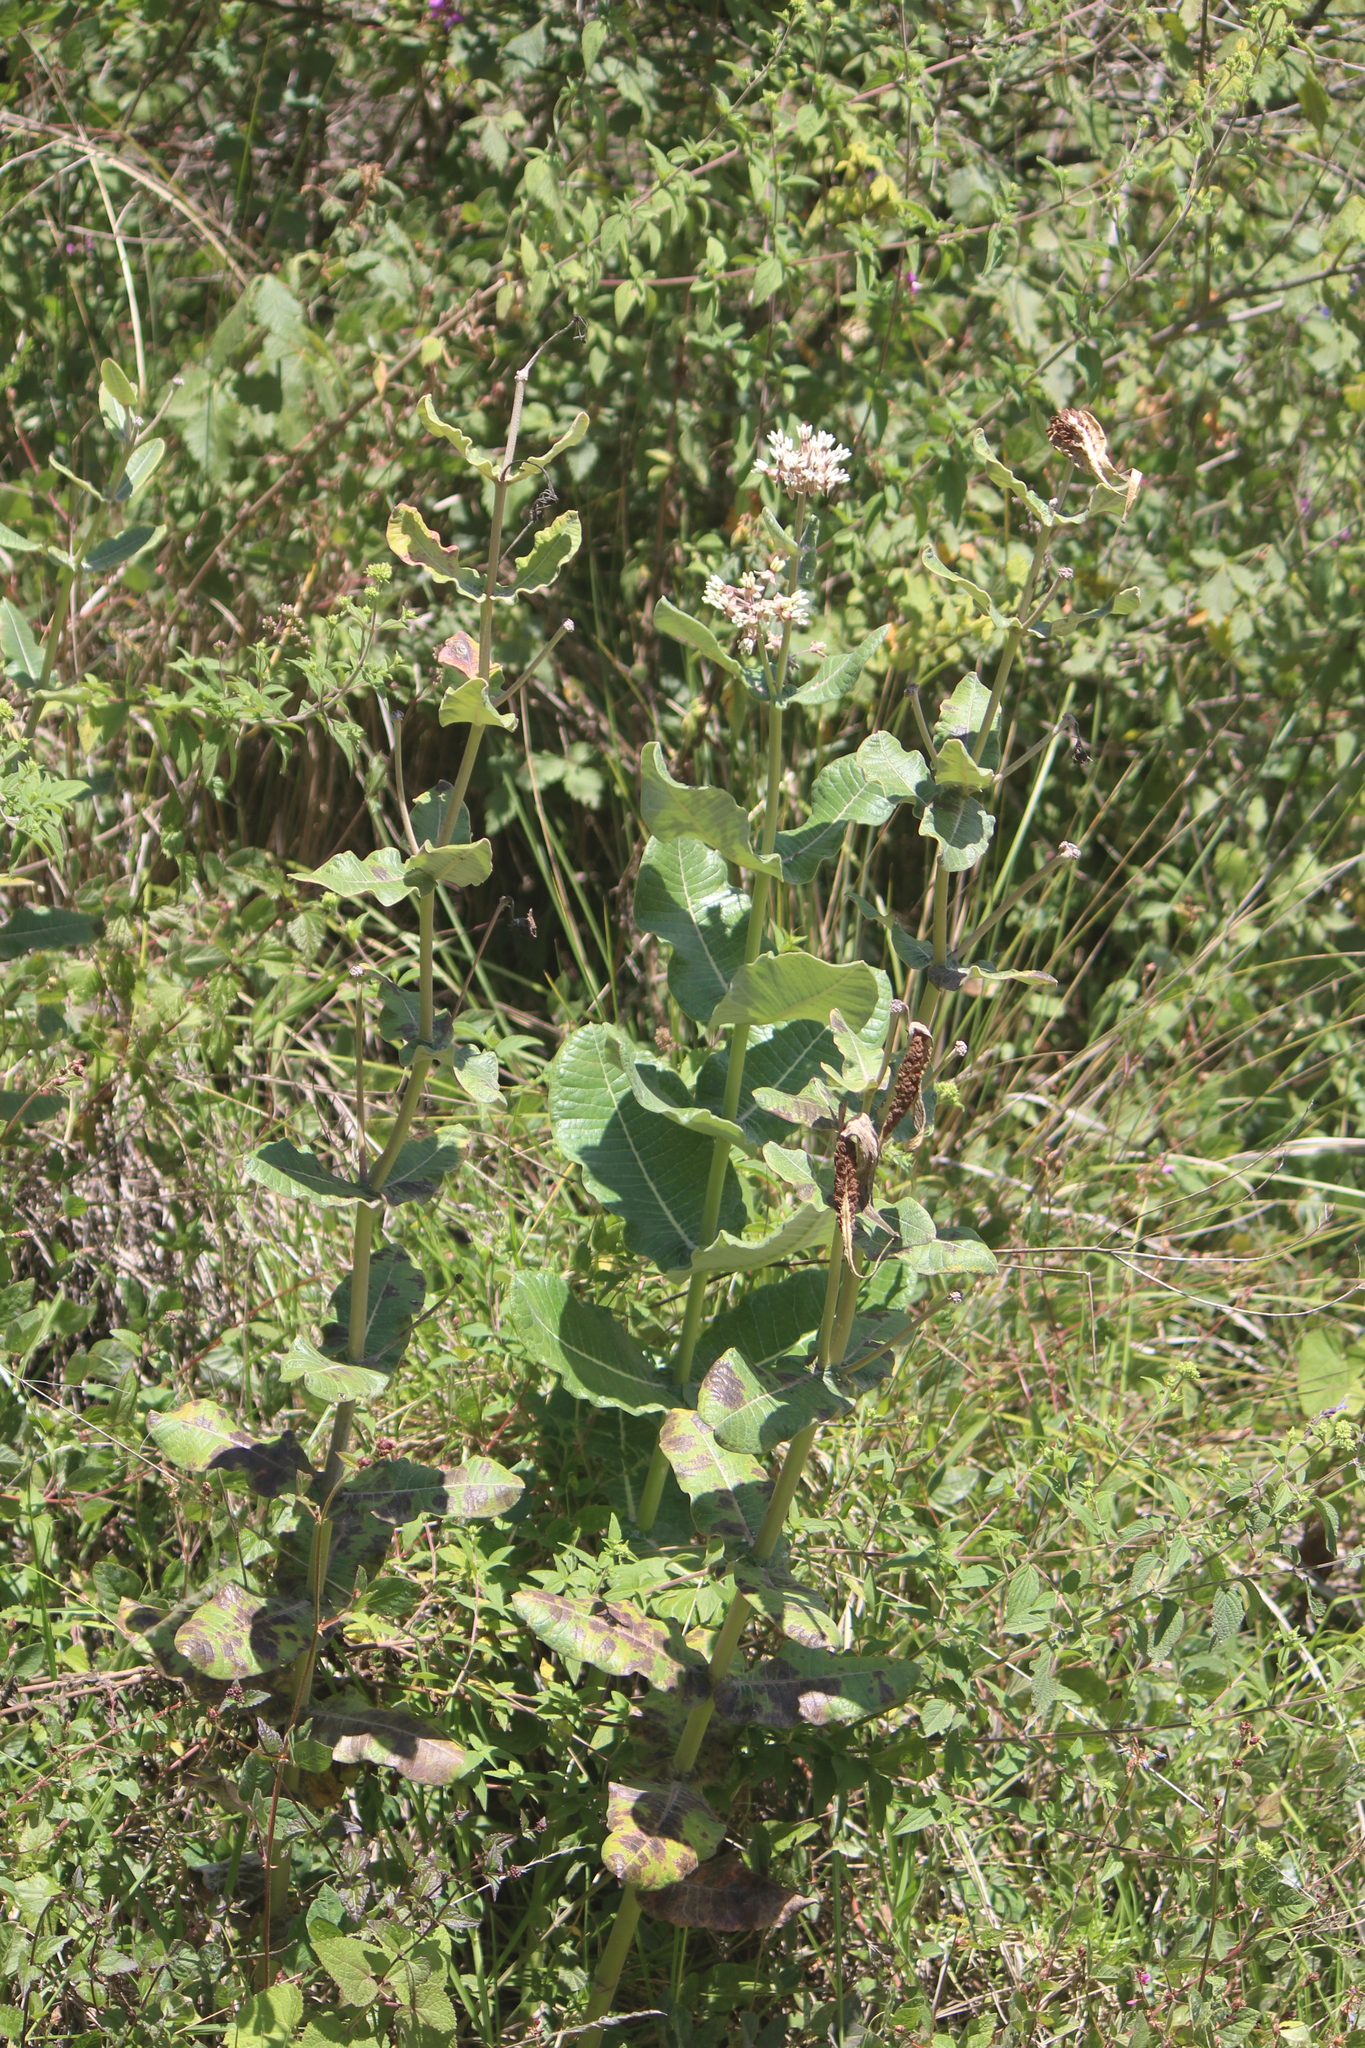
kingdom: Plantae
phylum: Tracheophyta
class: Magnoliopsida
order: Gentianales
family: Apocynaceae
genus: Asclepias
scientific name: Asclepias otarioides
